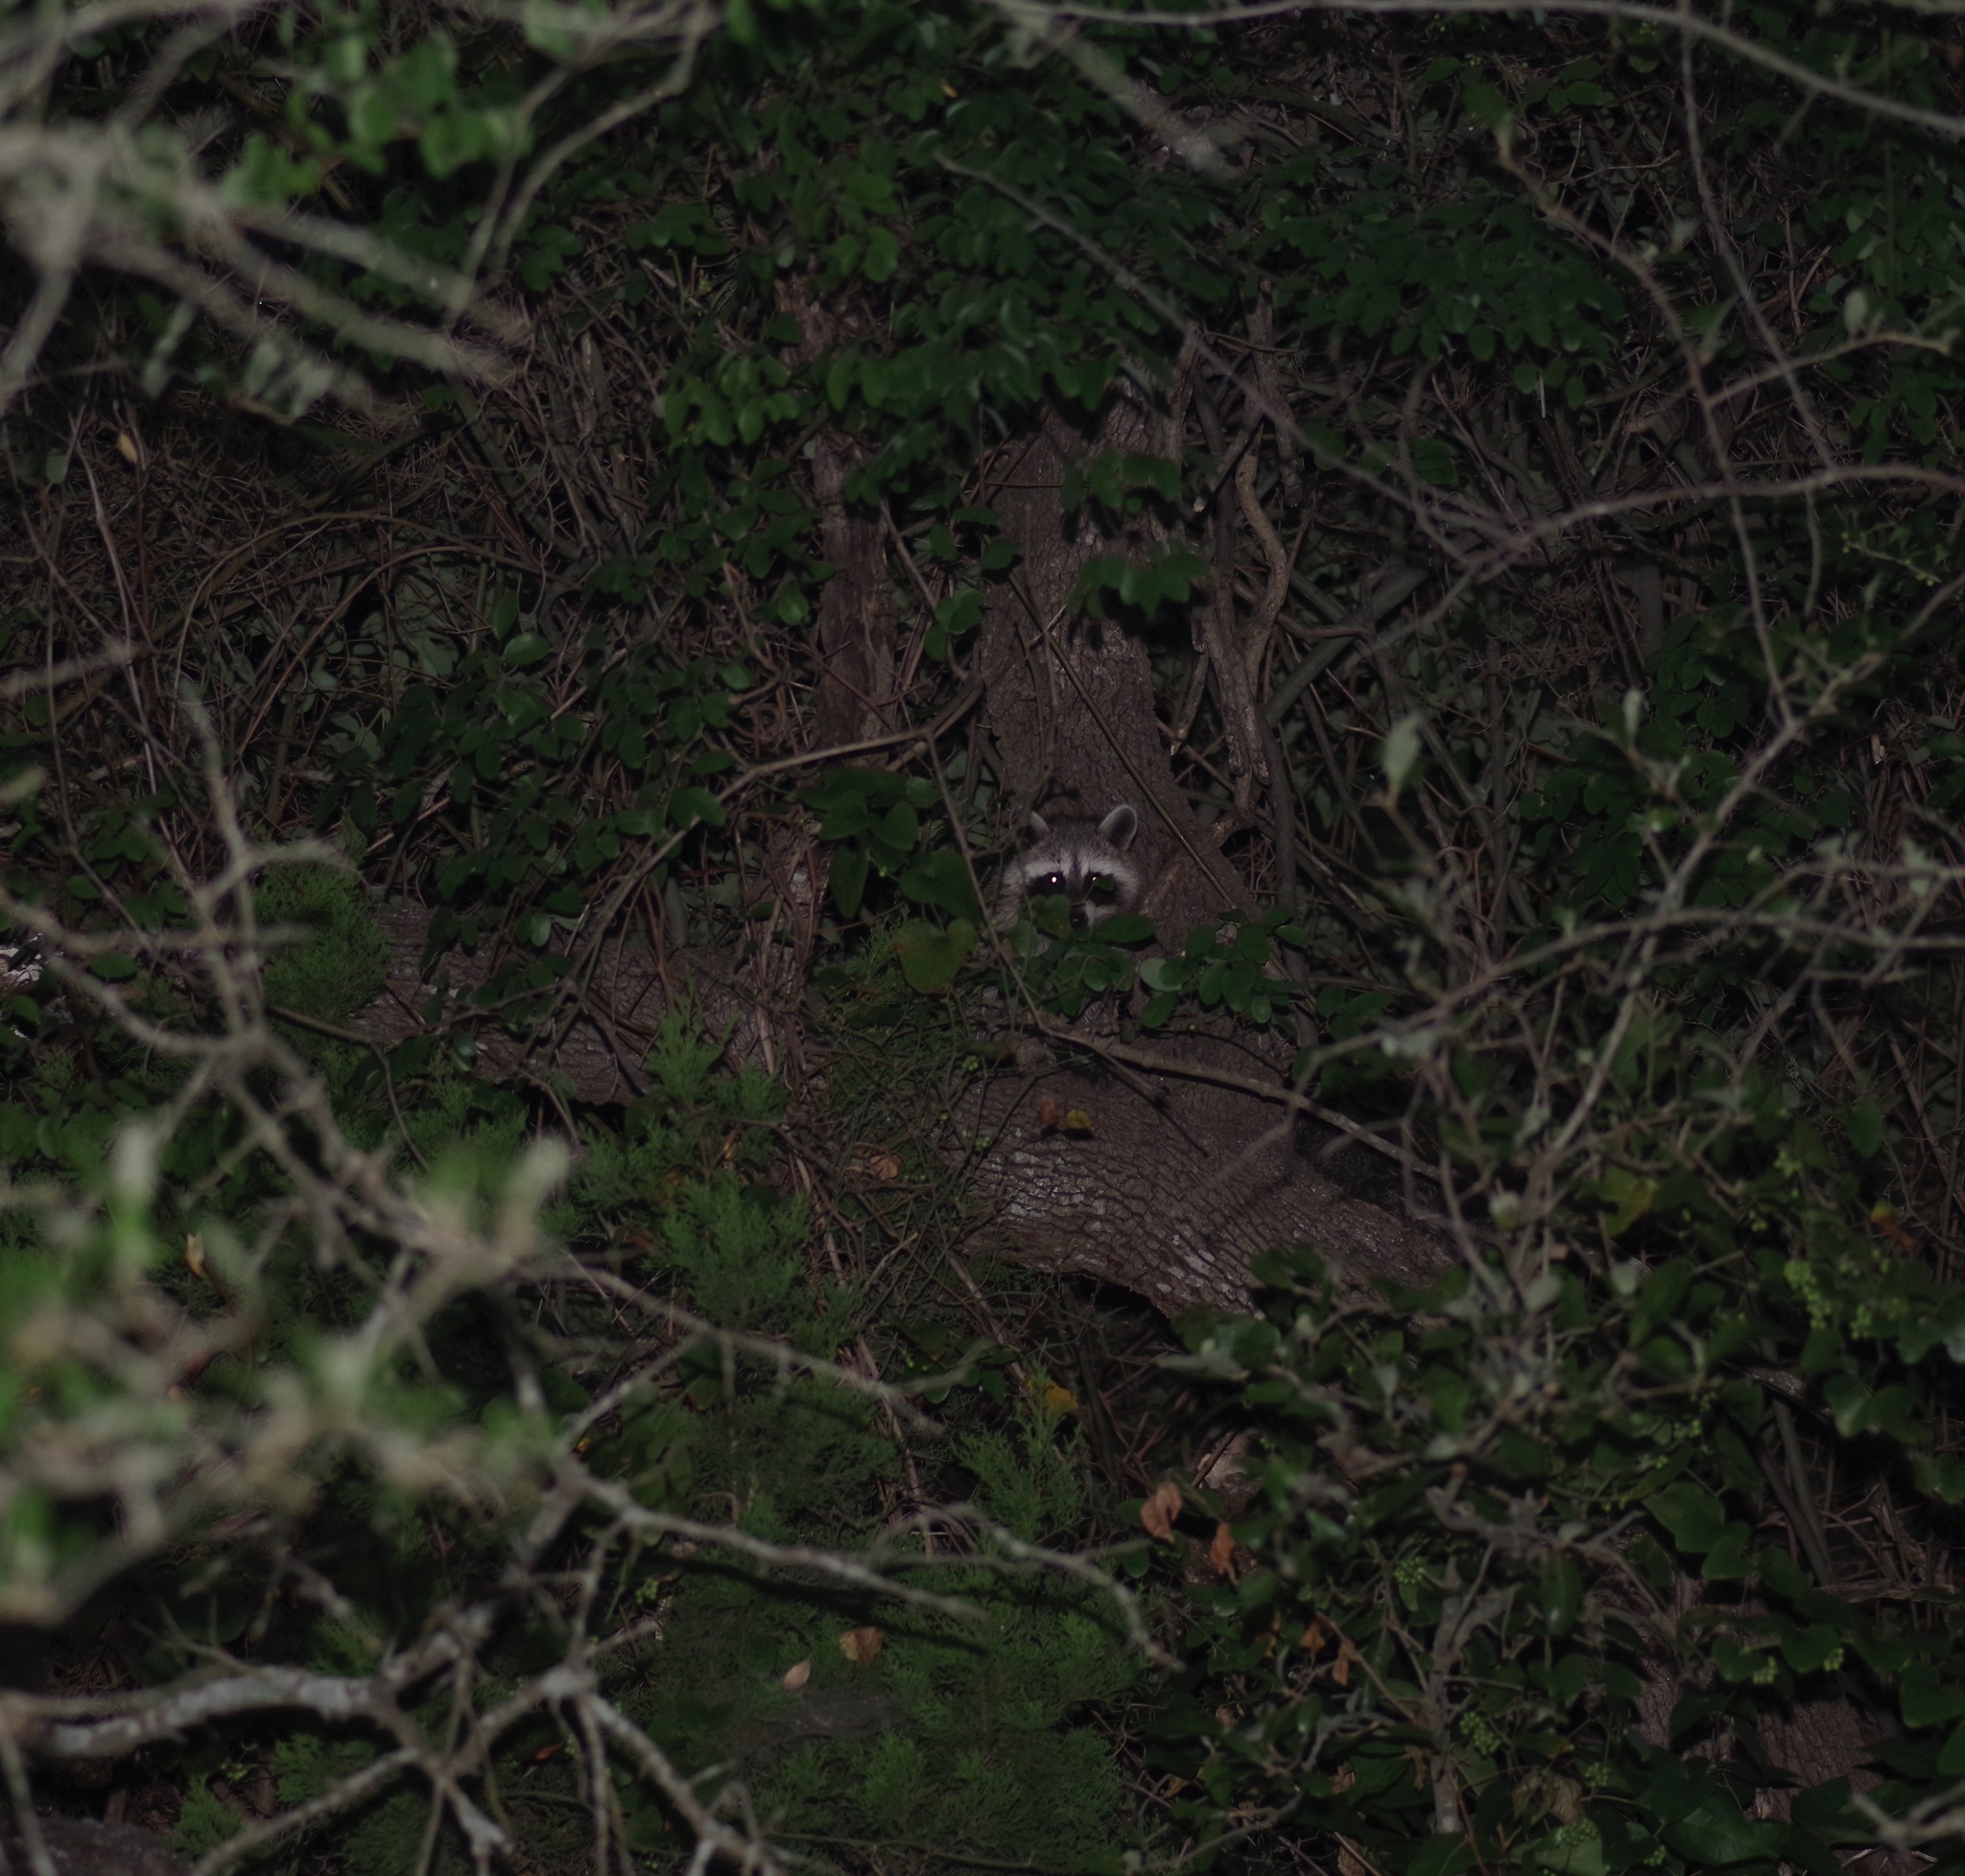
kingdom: Animalia
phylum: Chordata
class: Mammalia
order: Carnivora
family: Procyonidae
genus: Procyon
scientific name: Procyon lotor
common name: Raccoon
